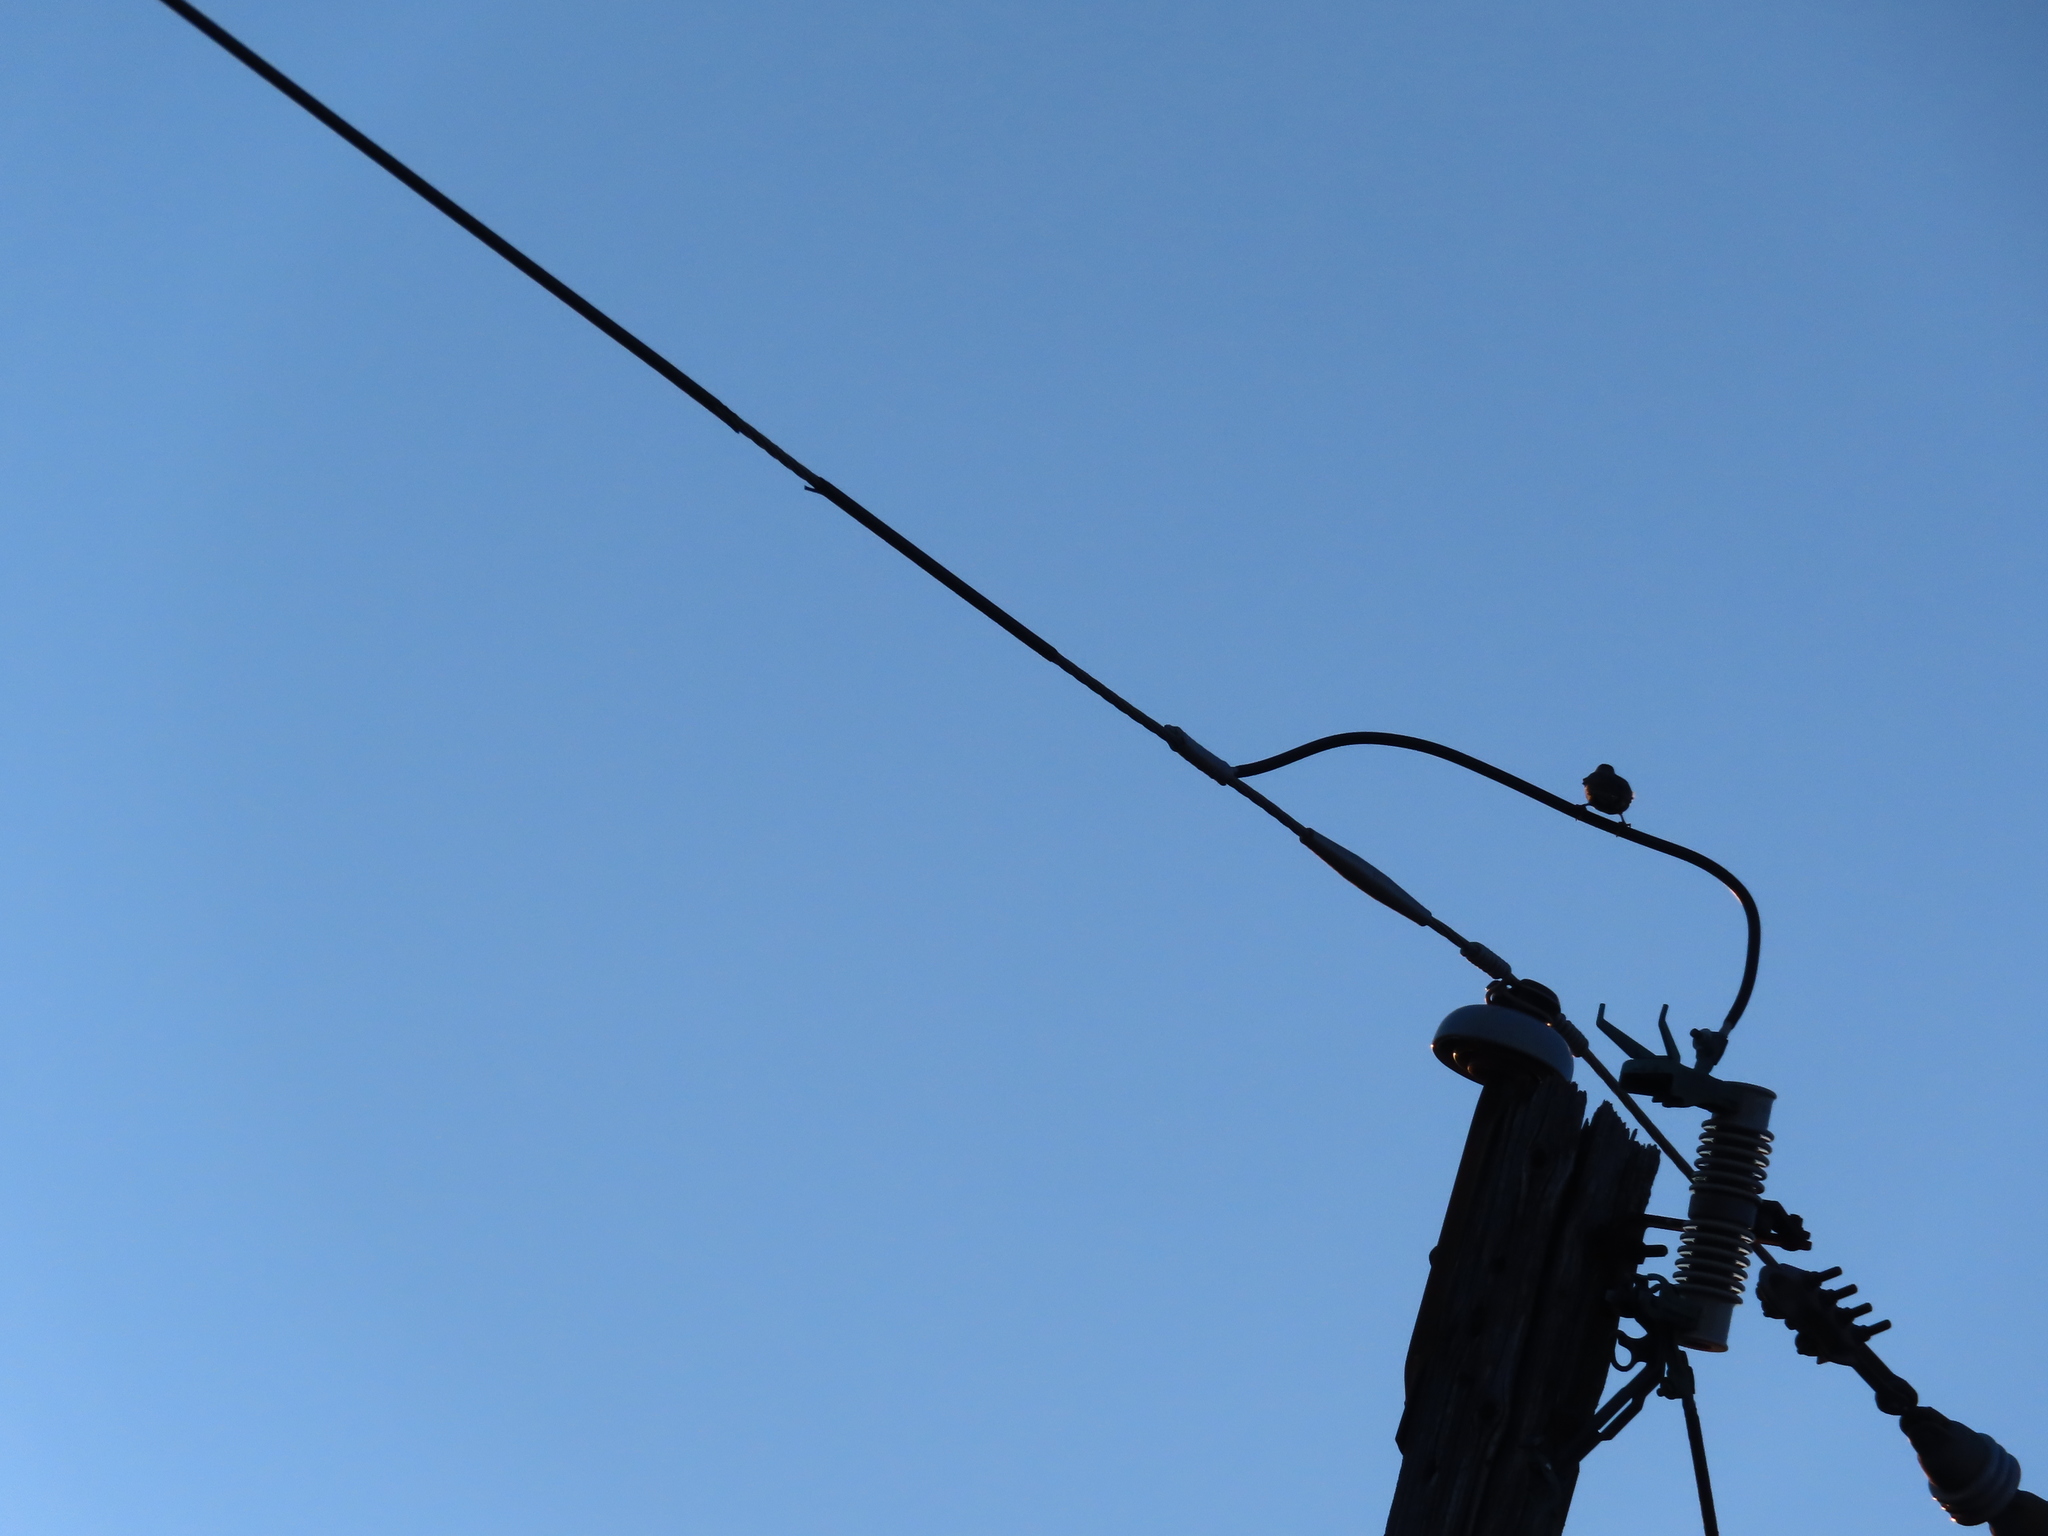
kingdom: Animalia
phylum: Chordata
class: Aves
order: Passeriformes
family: Sturnidae
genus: Sturnus
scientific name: Sturnus vulgaris
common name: Common starling
